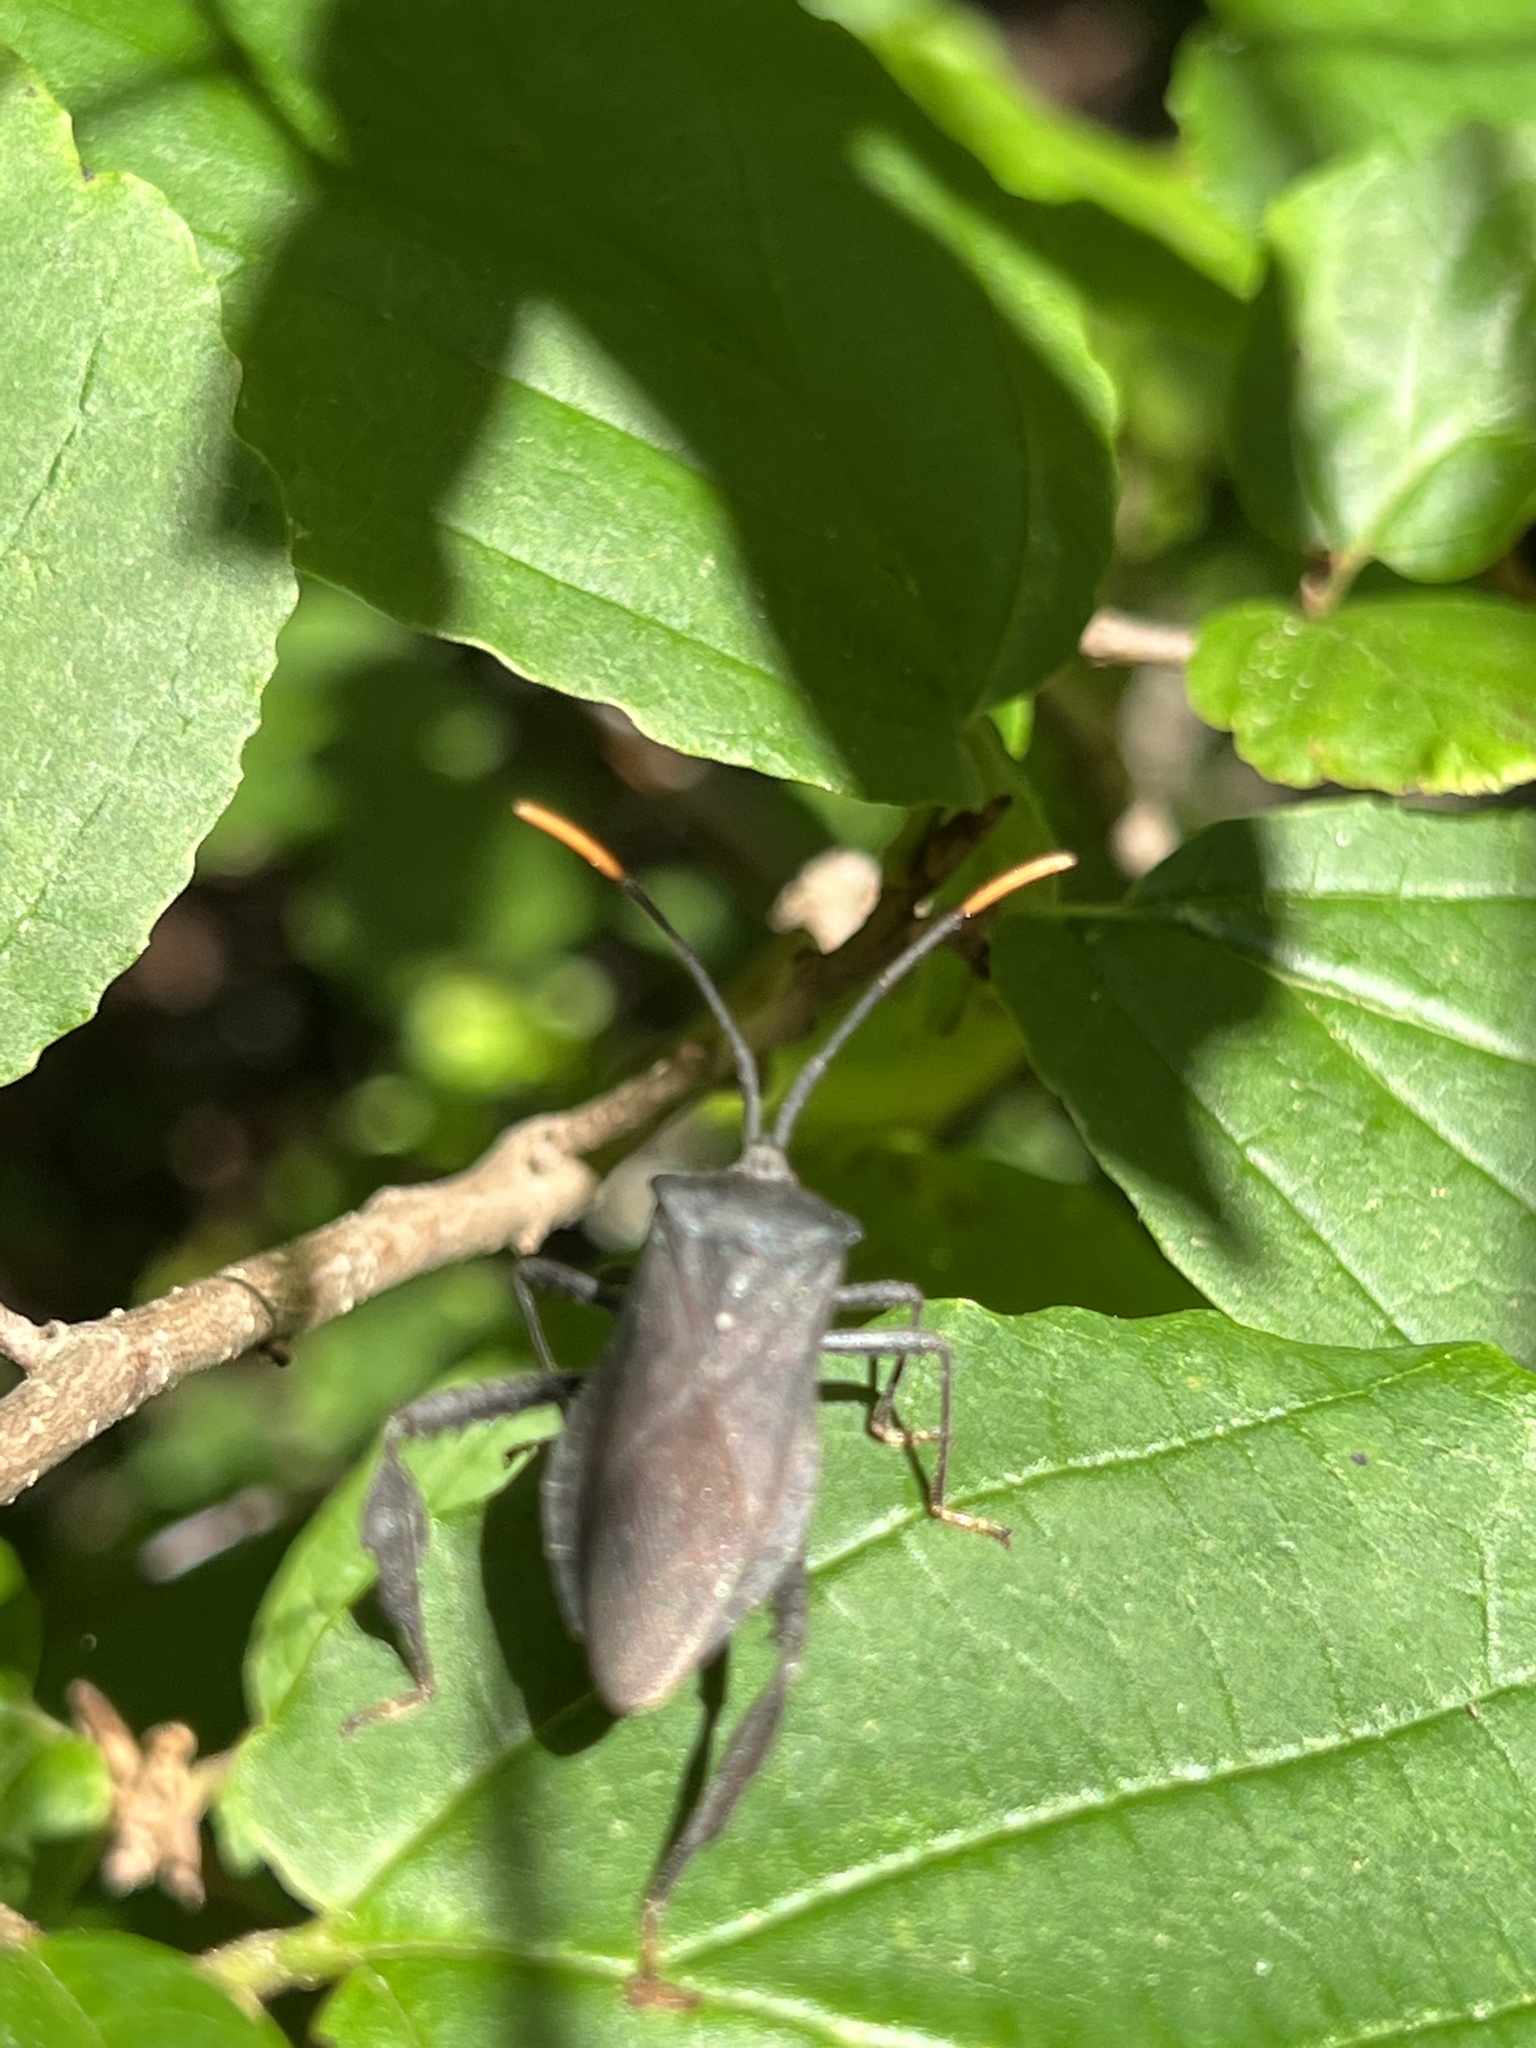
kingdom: Animalia
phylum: Arthropoda
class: Insecta
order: Hemiptera
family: Coreidae
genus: Acanthocephala
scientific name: Acanthocephala terminalis
